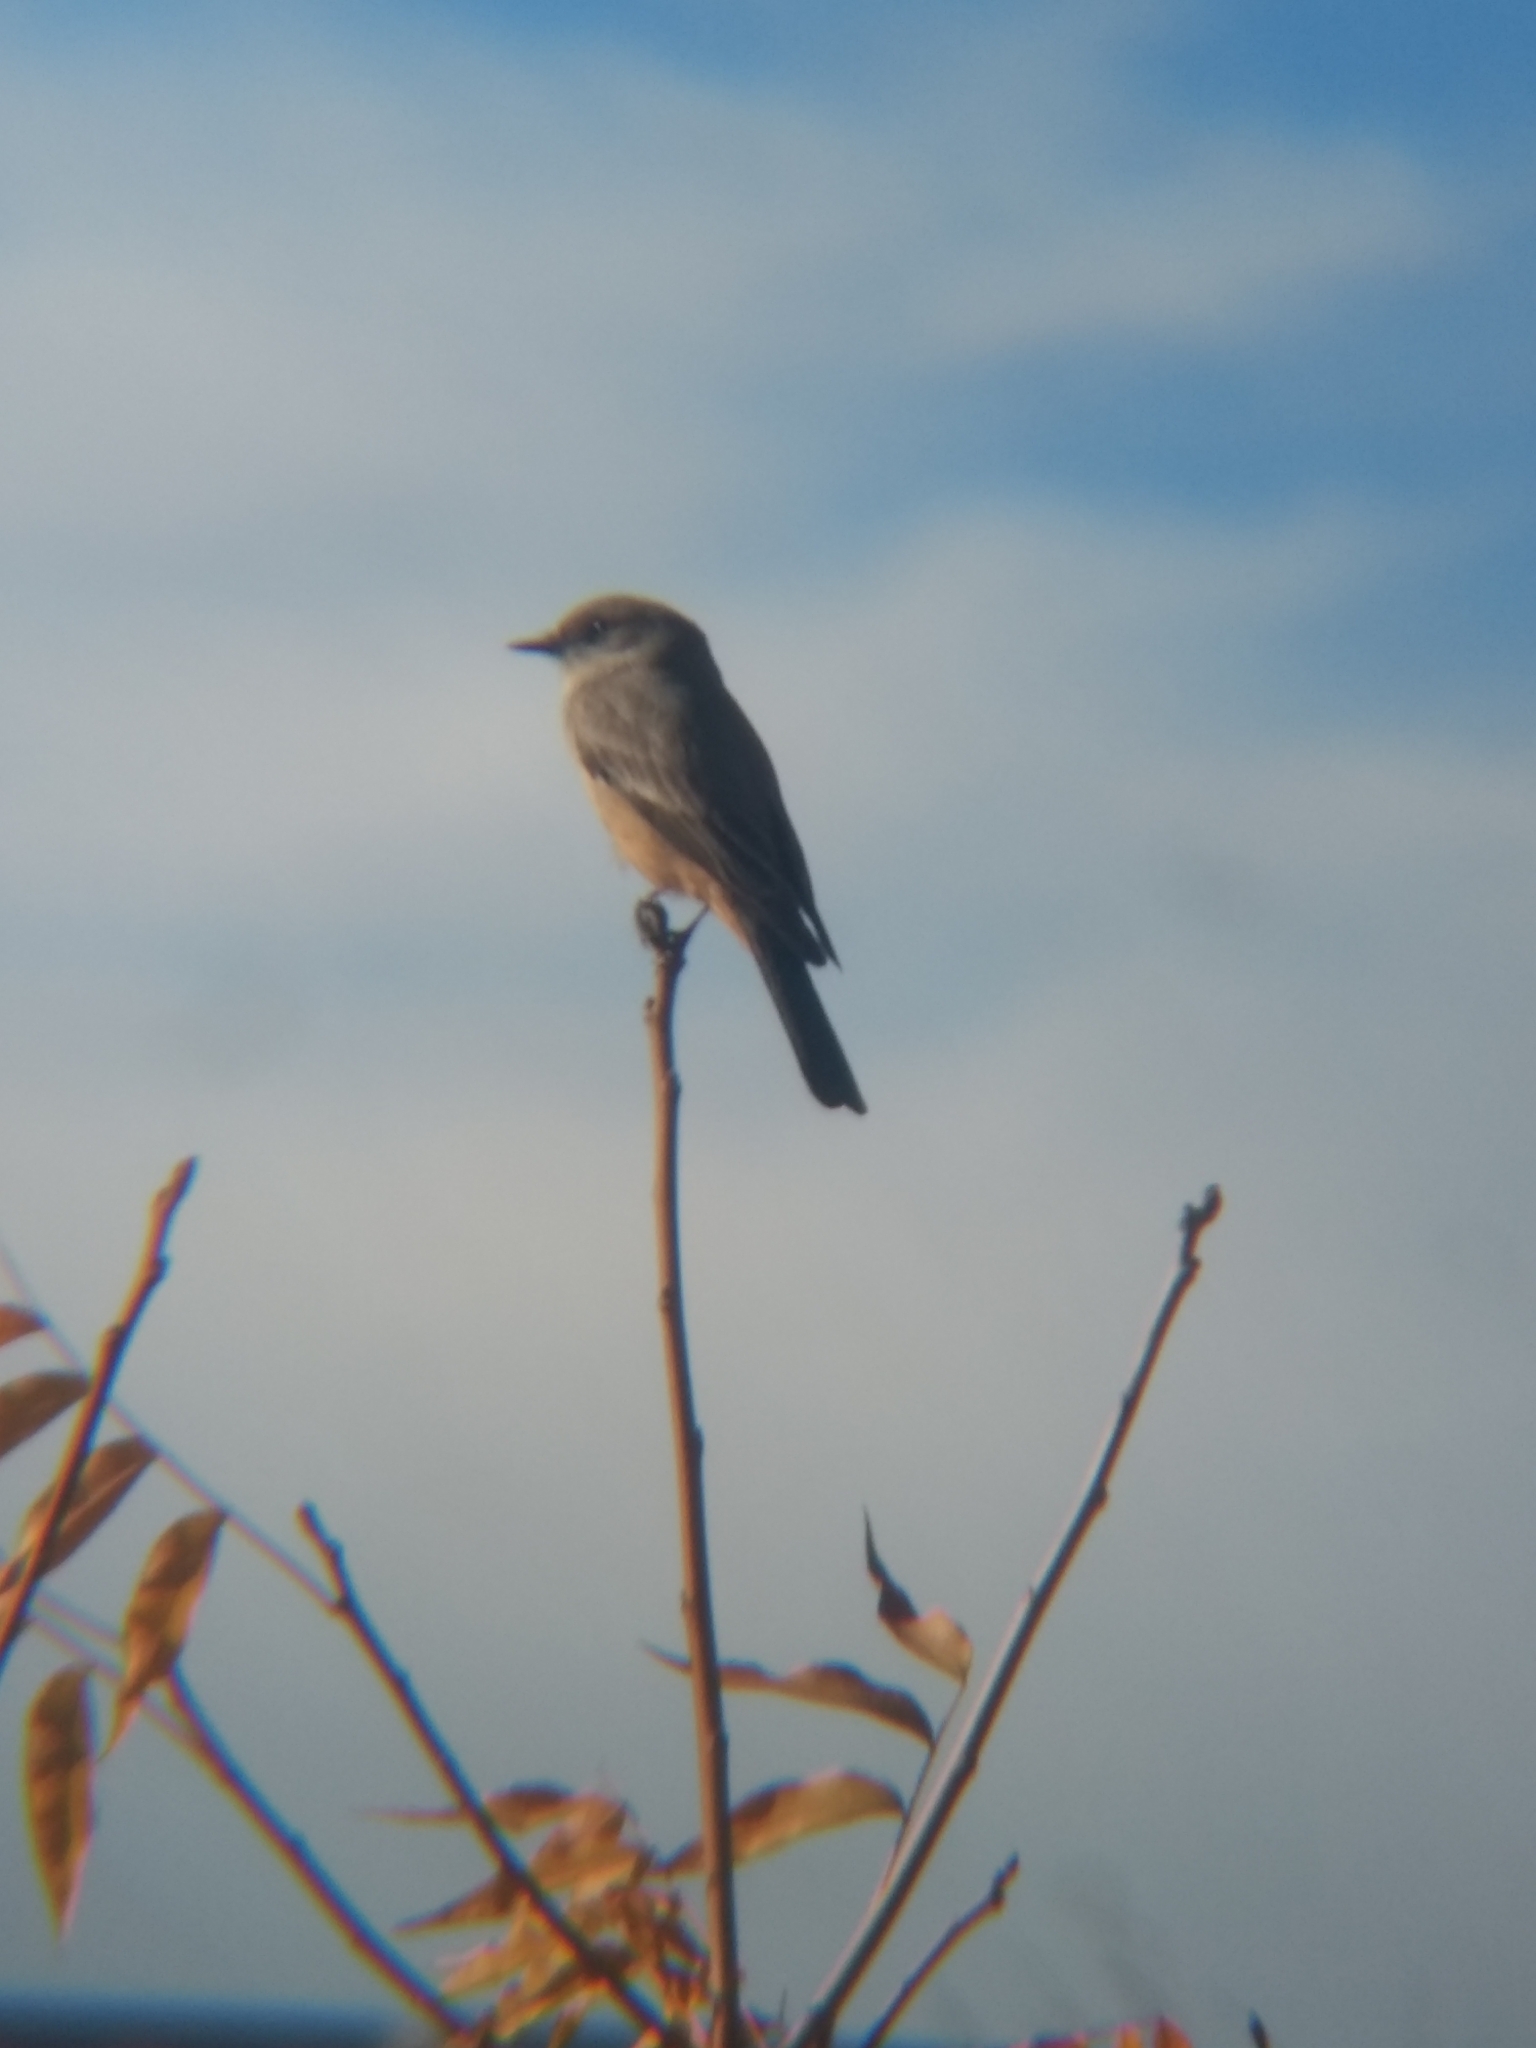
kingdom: Animalia
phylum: Chordata
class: Aves
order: Passeriformes
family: Tyrannidae
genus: Sayornis
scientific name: Sayornis saya
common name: Say's phoebe
